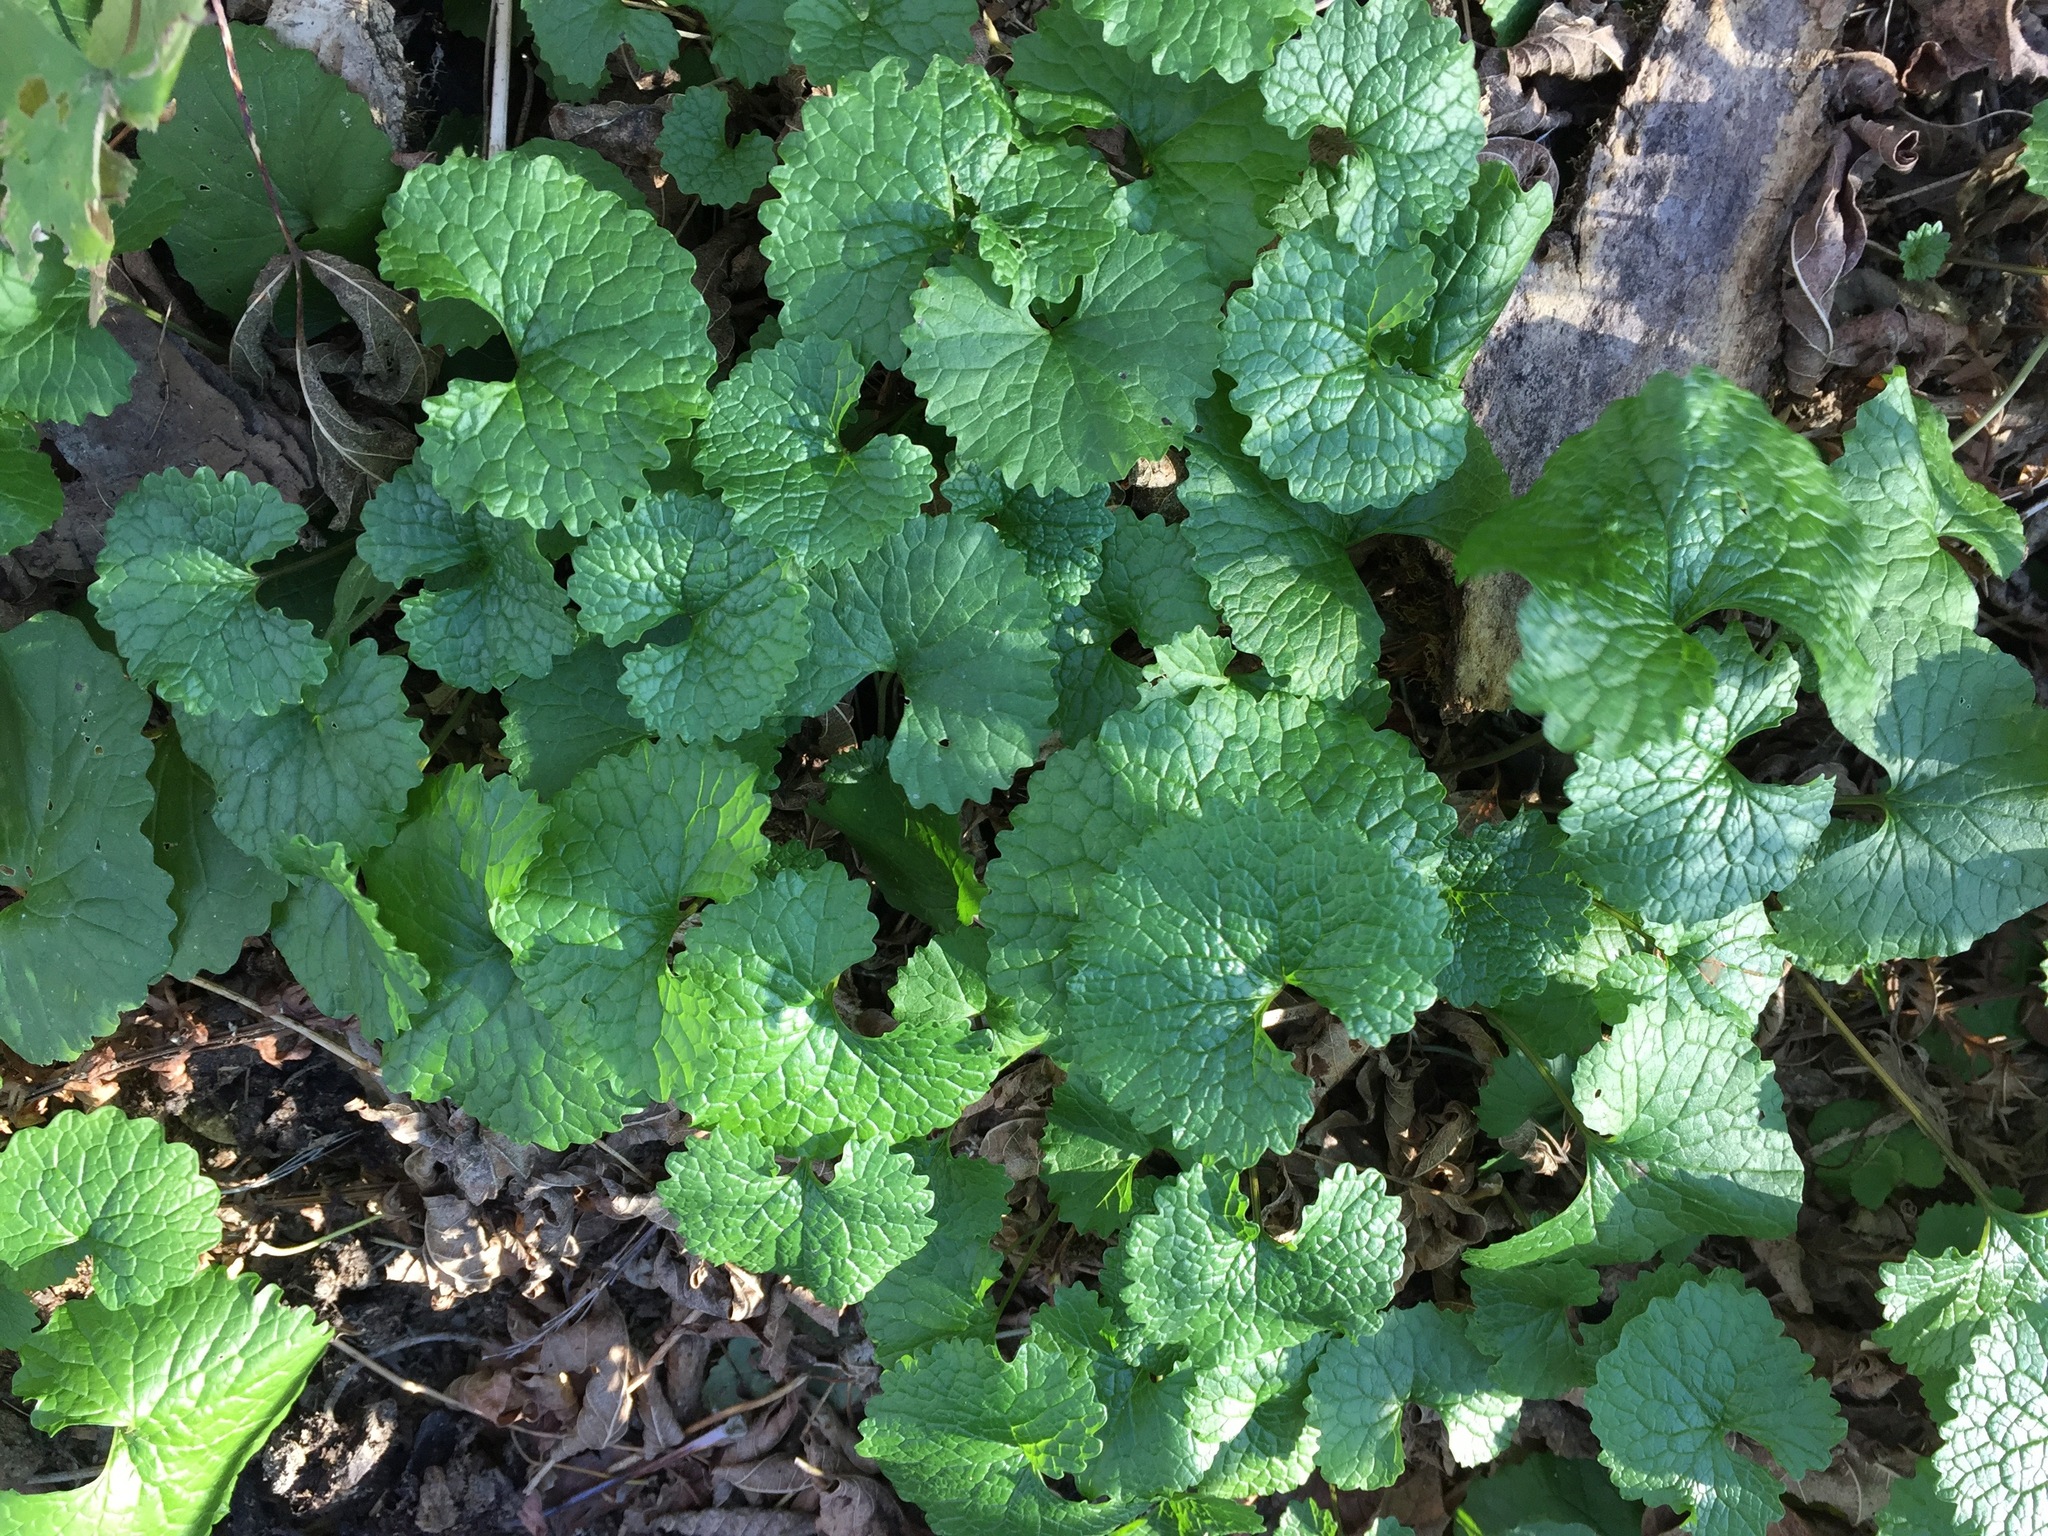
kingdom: Plantae
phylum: Tracheophyta
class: Magnoliopsida
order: Brassicales
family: Brassicaceae
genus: Alliaria
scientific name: Alliaria petiolata
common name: Garlic mustard
